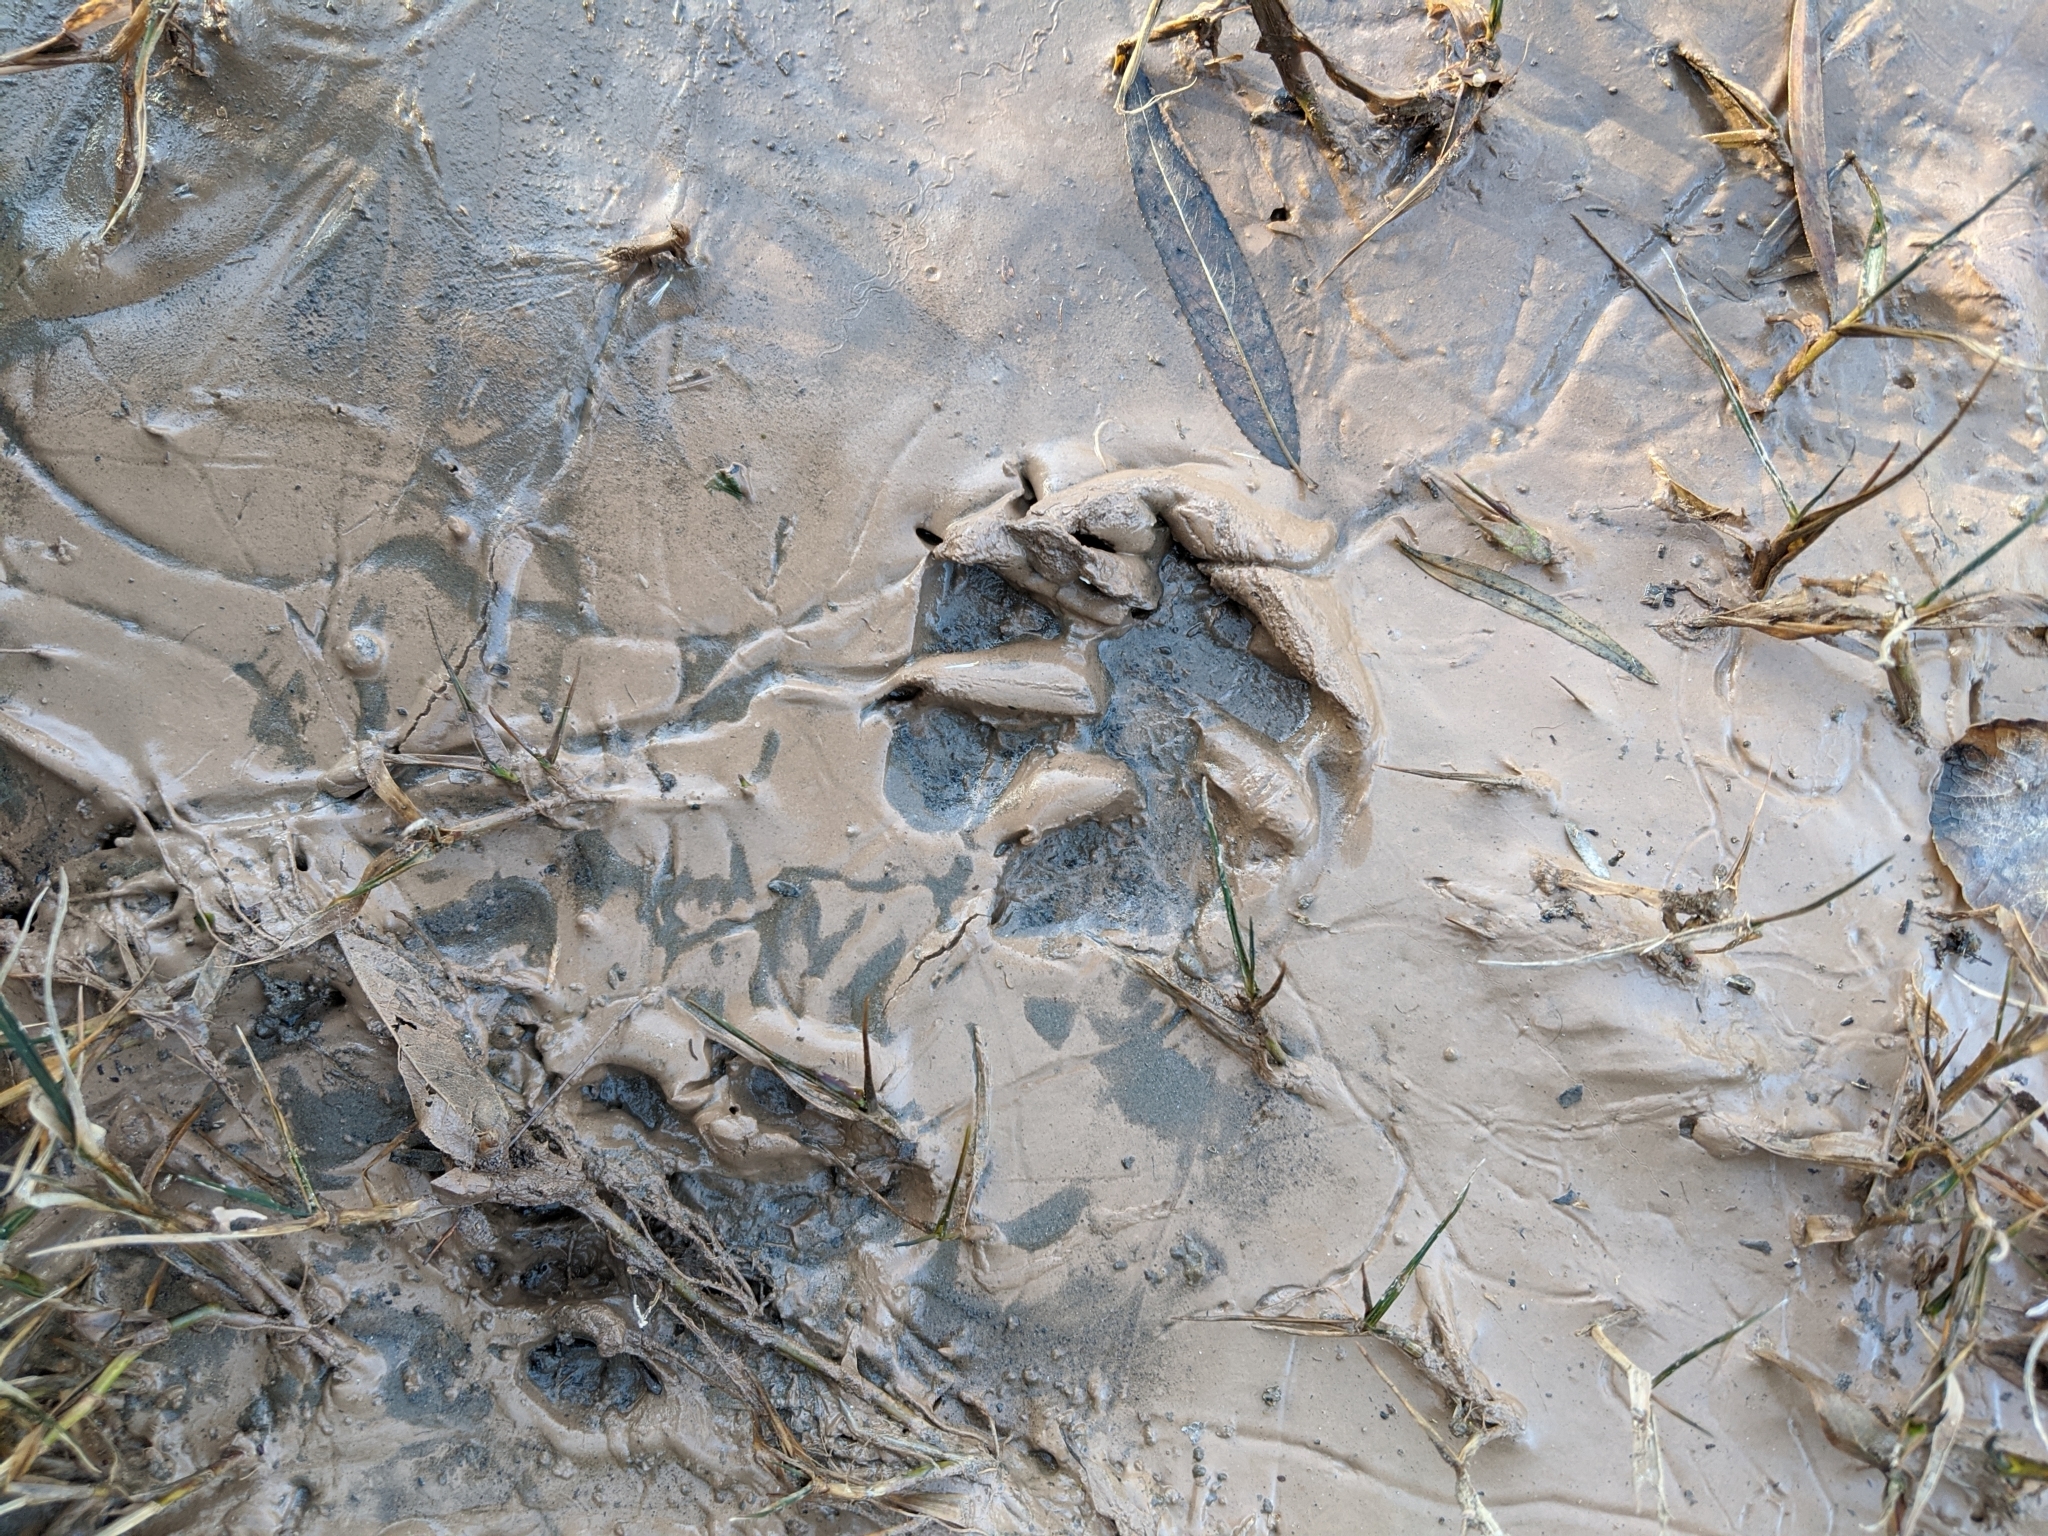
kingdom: Animalia
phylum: Chordata
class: Mammalia
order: Carnivora
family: Procyonidae
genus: Procyon
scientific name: Procyon lotor
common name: Raccoon
